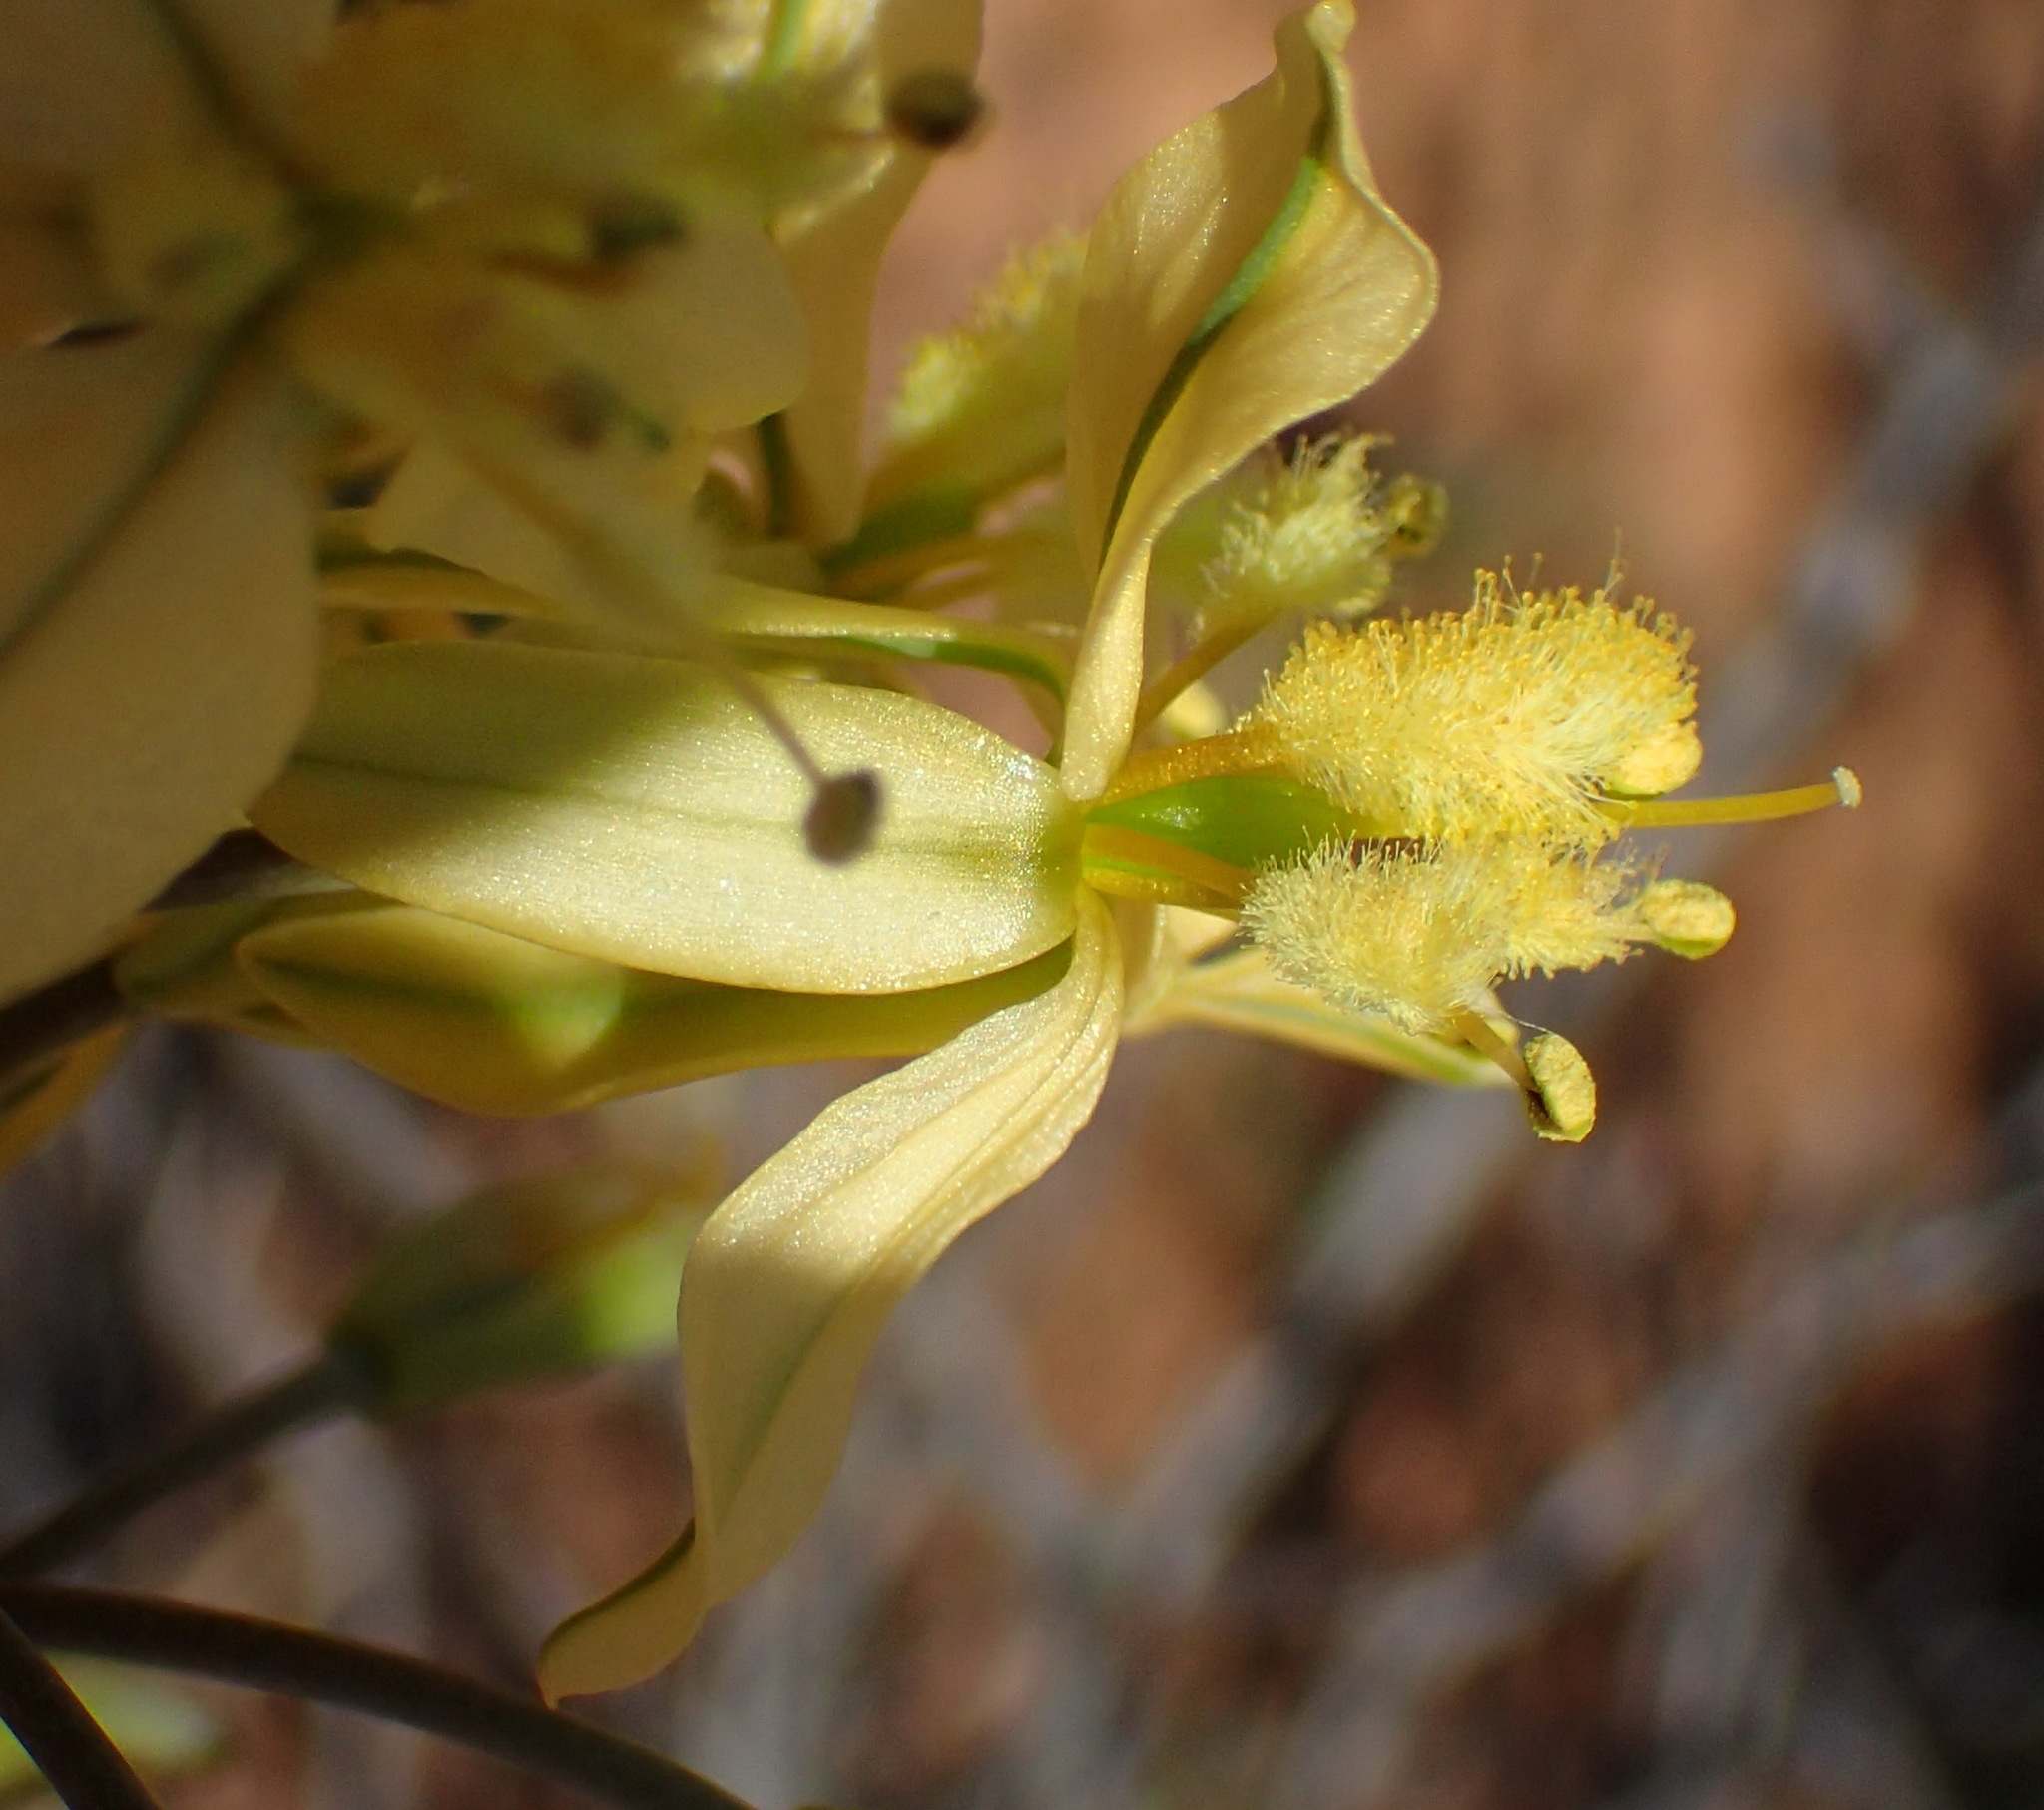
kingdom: Plantae
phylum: Tracheophyta
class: Liliopsida
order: Asparagales
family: Asphodelaceae
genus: Bulbine
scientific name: Bulbine praemorsa
